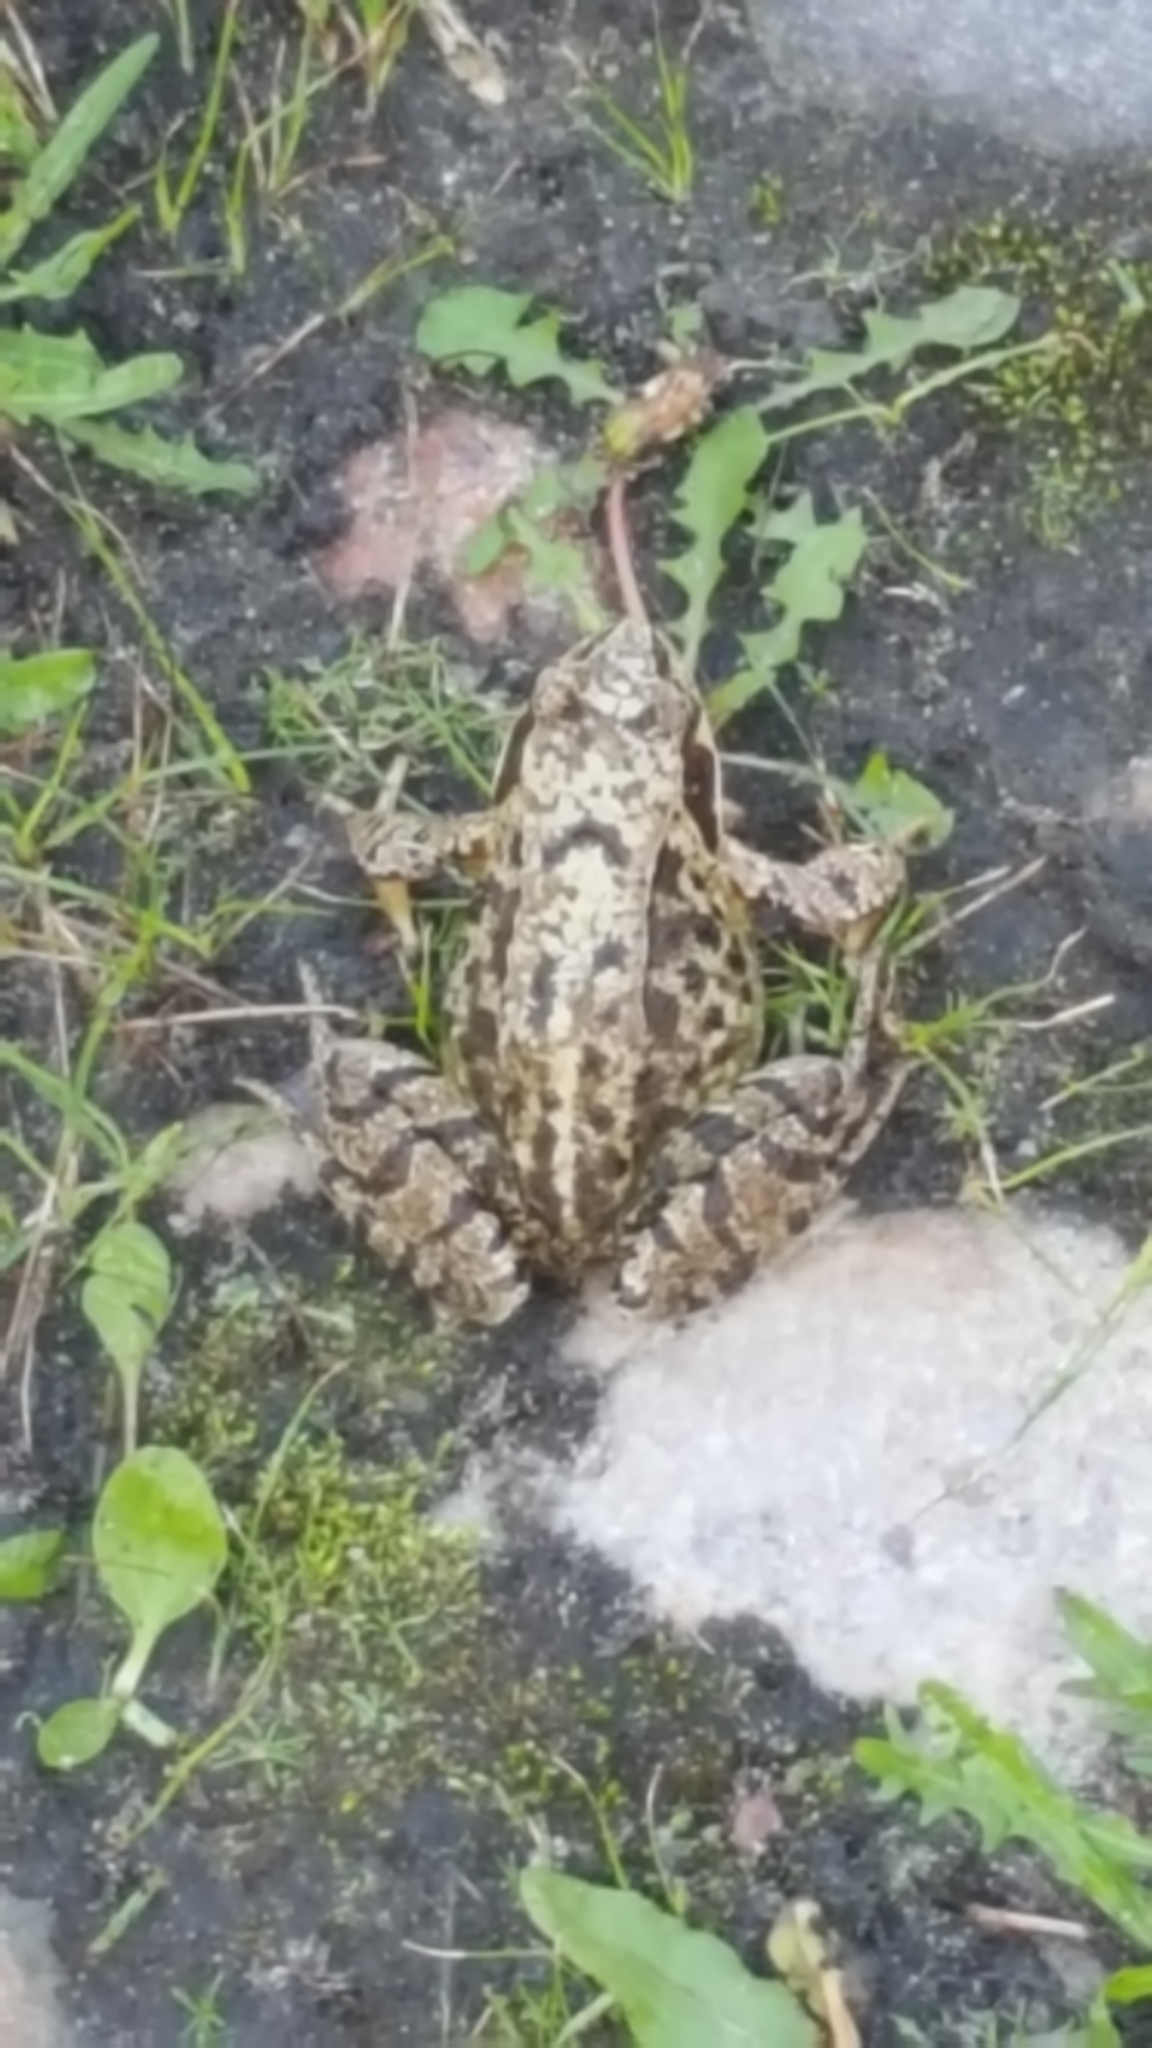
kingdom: Animalia
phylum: Chordata
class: Amphibia
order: Anura
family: Ranidae
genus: Rana
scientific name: Rana temporaria
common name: Common frog
